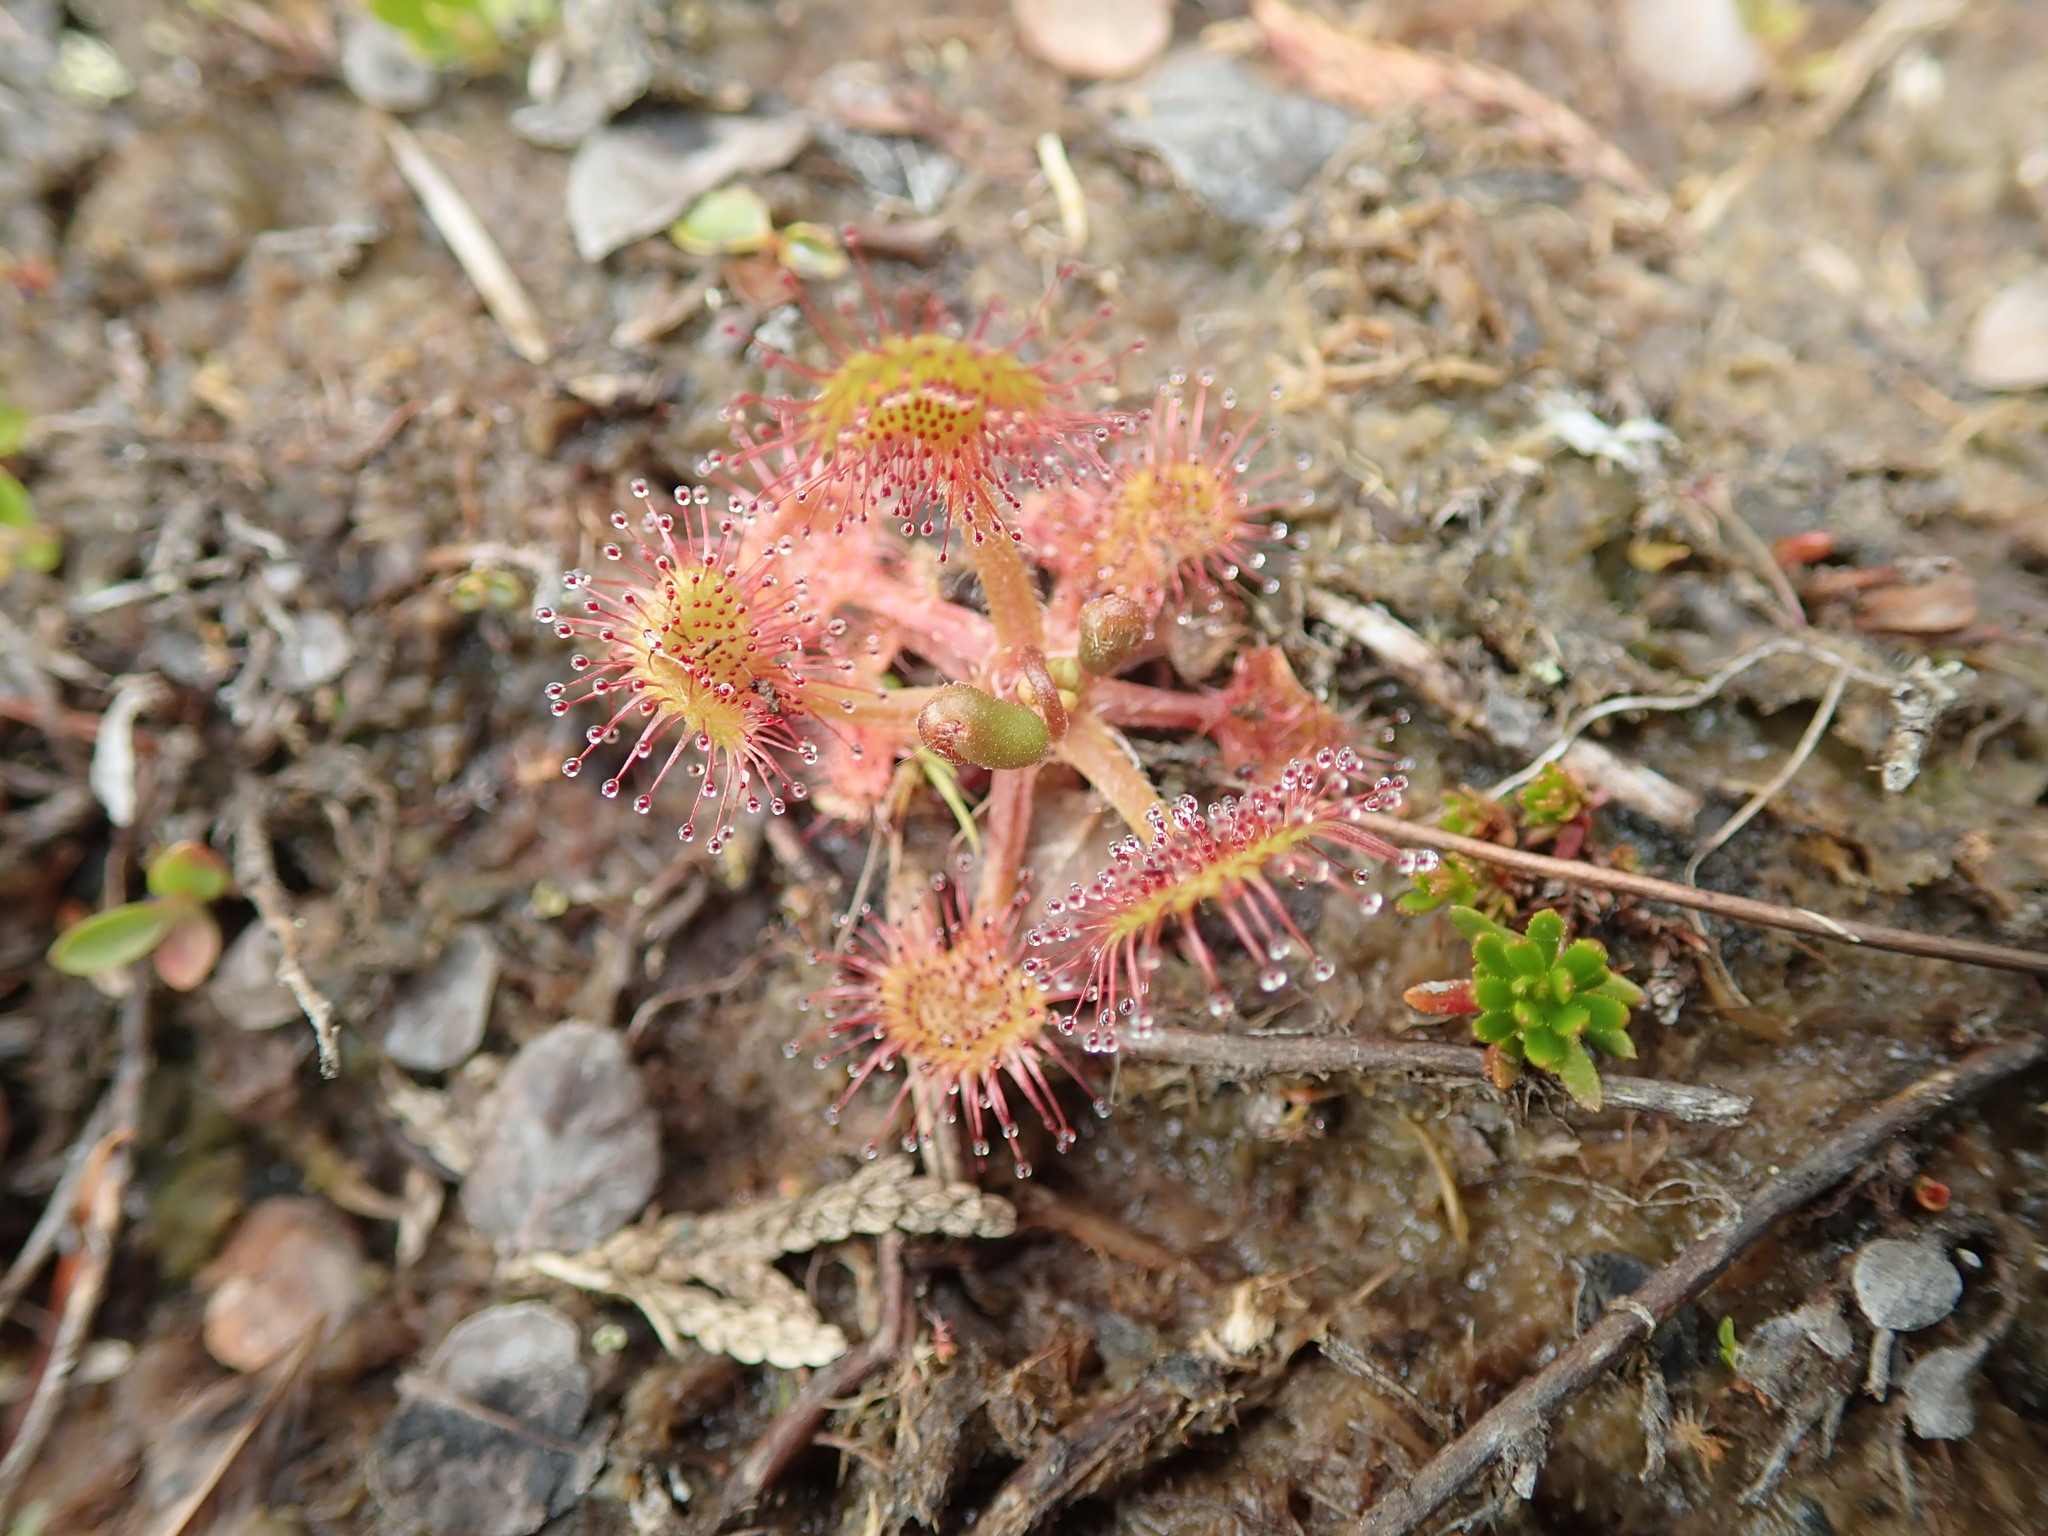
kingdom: Plantae
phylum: Tracheophyta
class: Magnoliopsida
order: Caryophyllales
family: Droseraceae
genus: Drosera
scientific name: Drosera rotundifolia
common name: Round-leaved sundew
